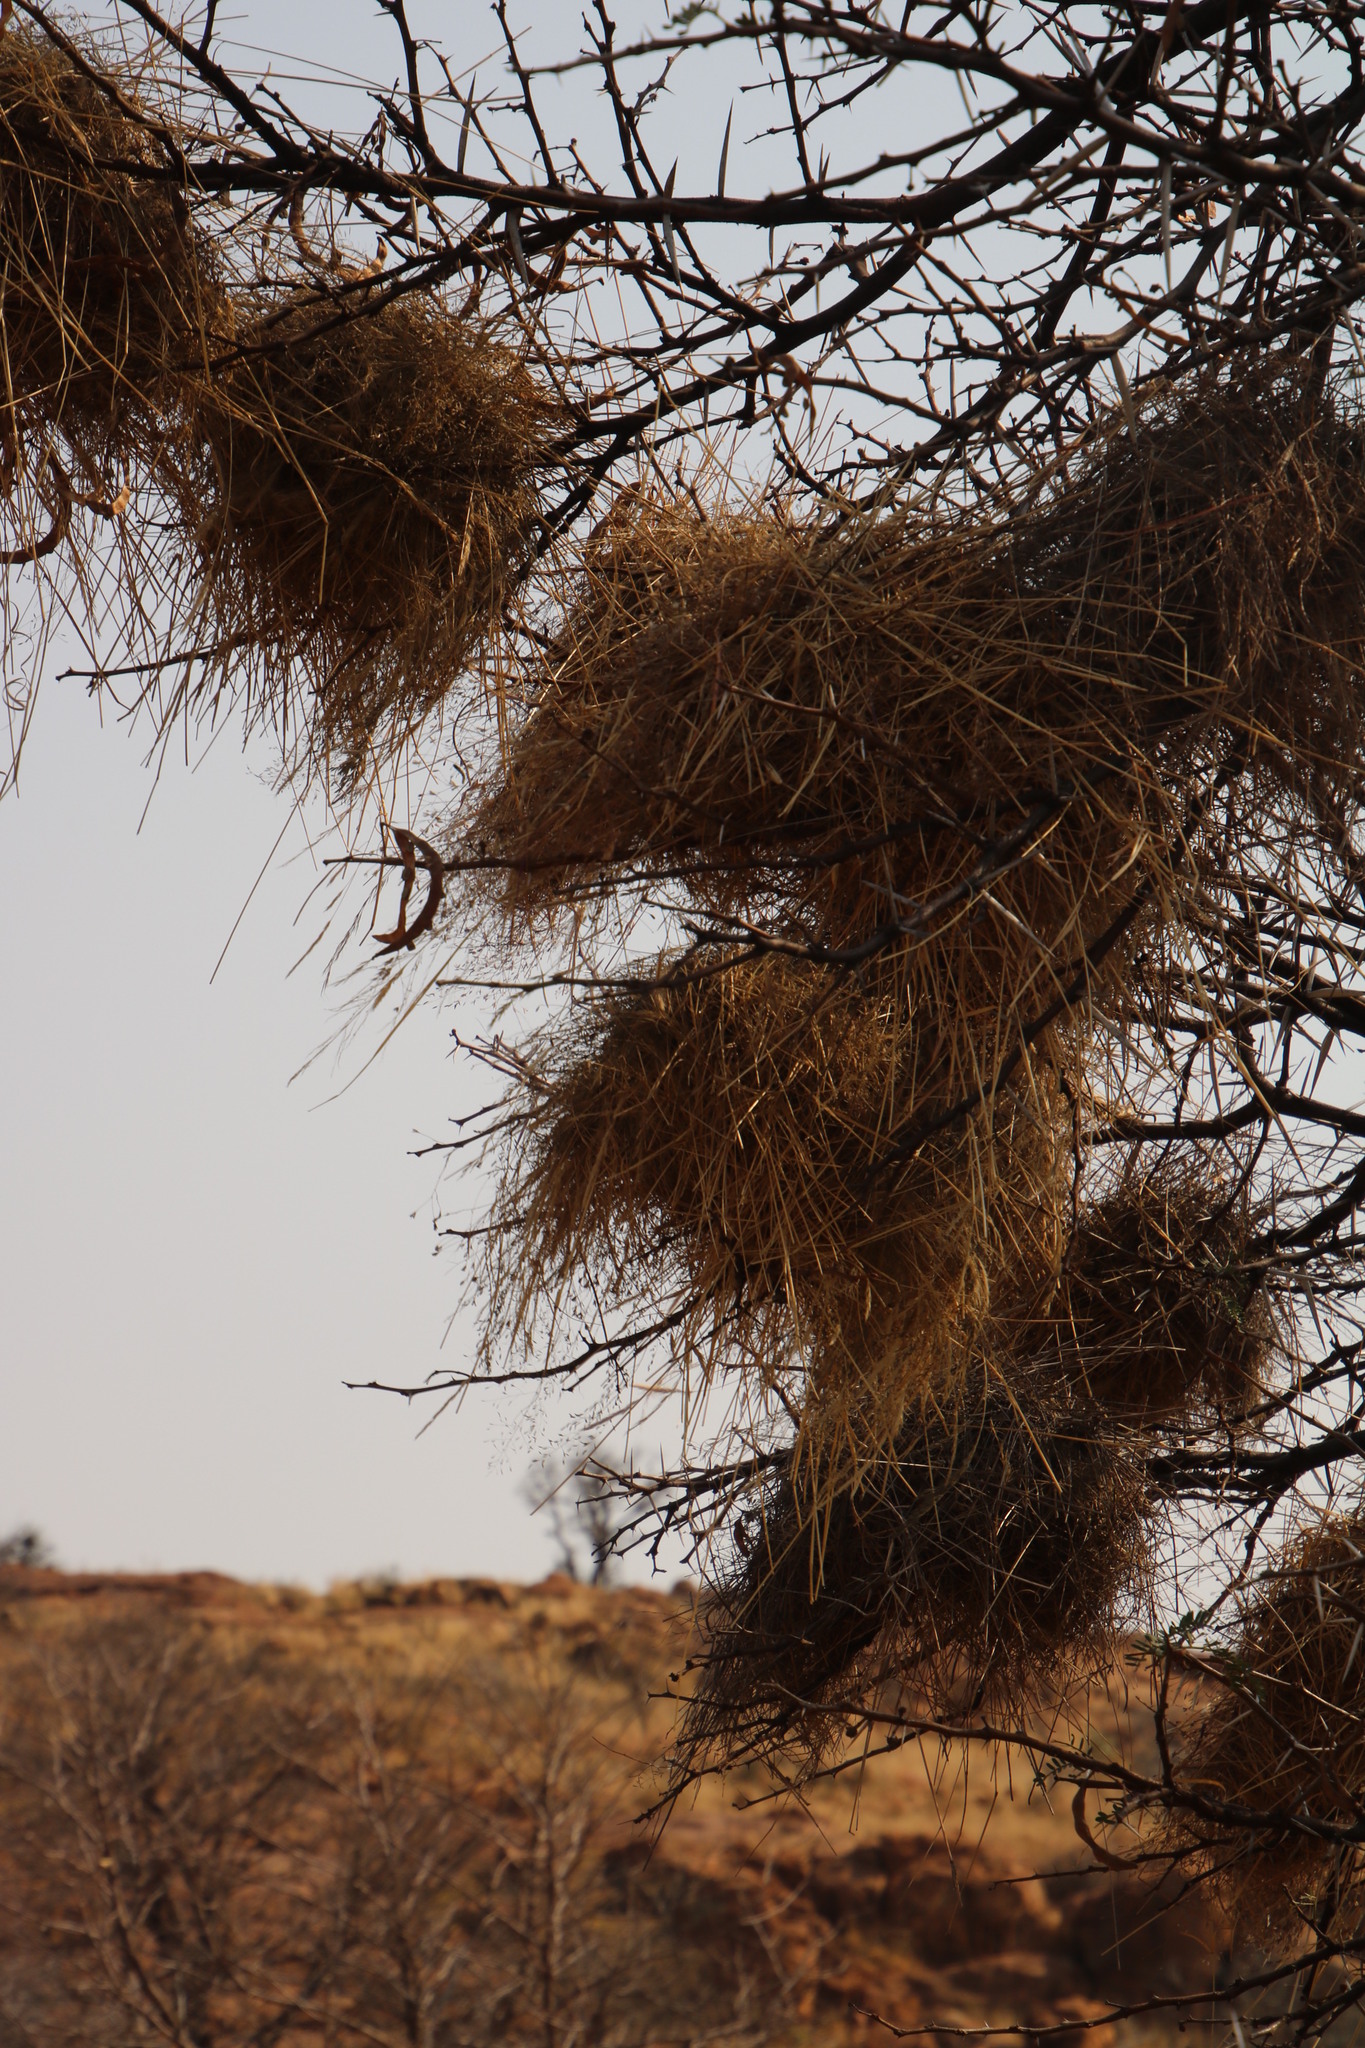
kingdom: Animalia
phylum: Chordata
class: Aves
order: Passeriformes
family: Passeridae
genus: Plocepasser
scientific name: Plocepasser mahali
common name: White-browed sparrow-weaver
